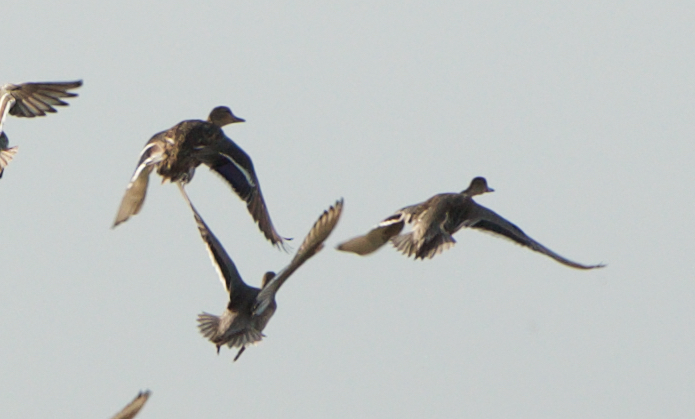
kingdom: Animalia
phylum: Chordata
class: Aves
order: Anseriformes
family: Anatidae
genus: Anas
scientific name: Anas acuta
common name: Northern pintail
